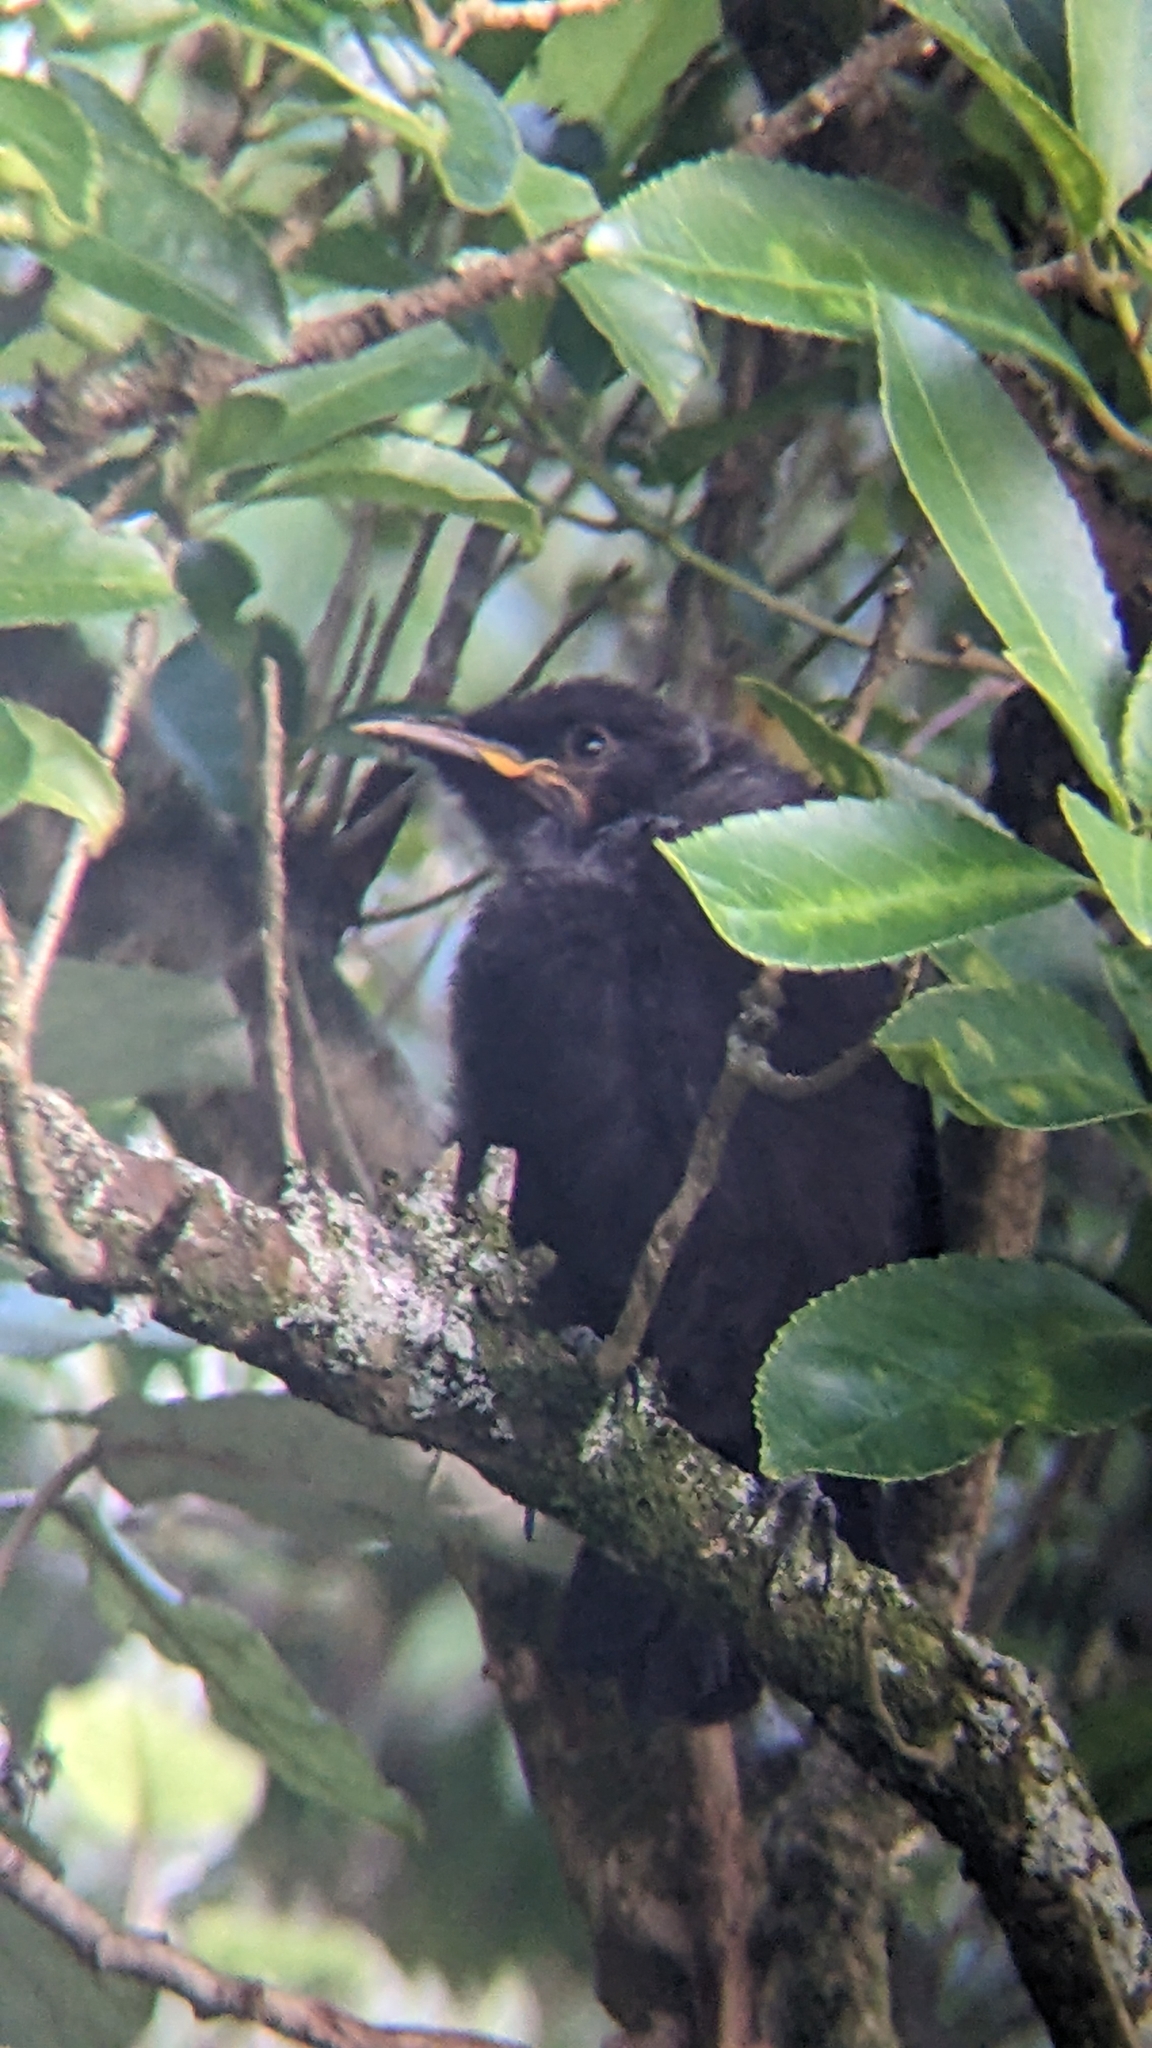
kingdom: Animalia
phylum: Chordata
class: Aves
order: Passeriformes
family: Meliphagidae
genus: Prosthemadera
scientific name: Prosthemadera novaeseelandiae
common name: Tui
